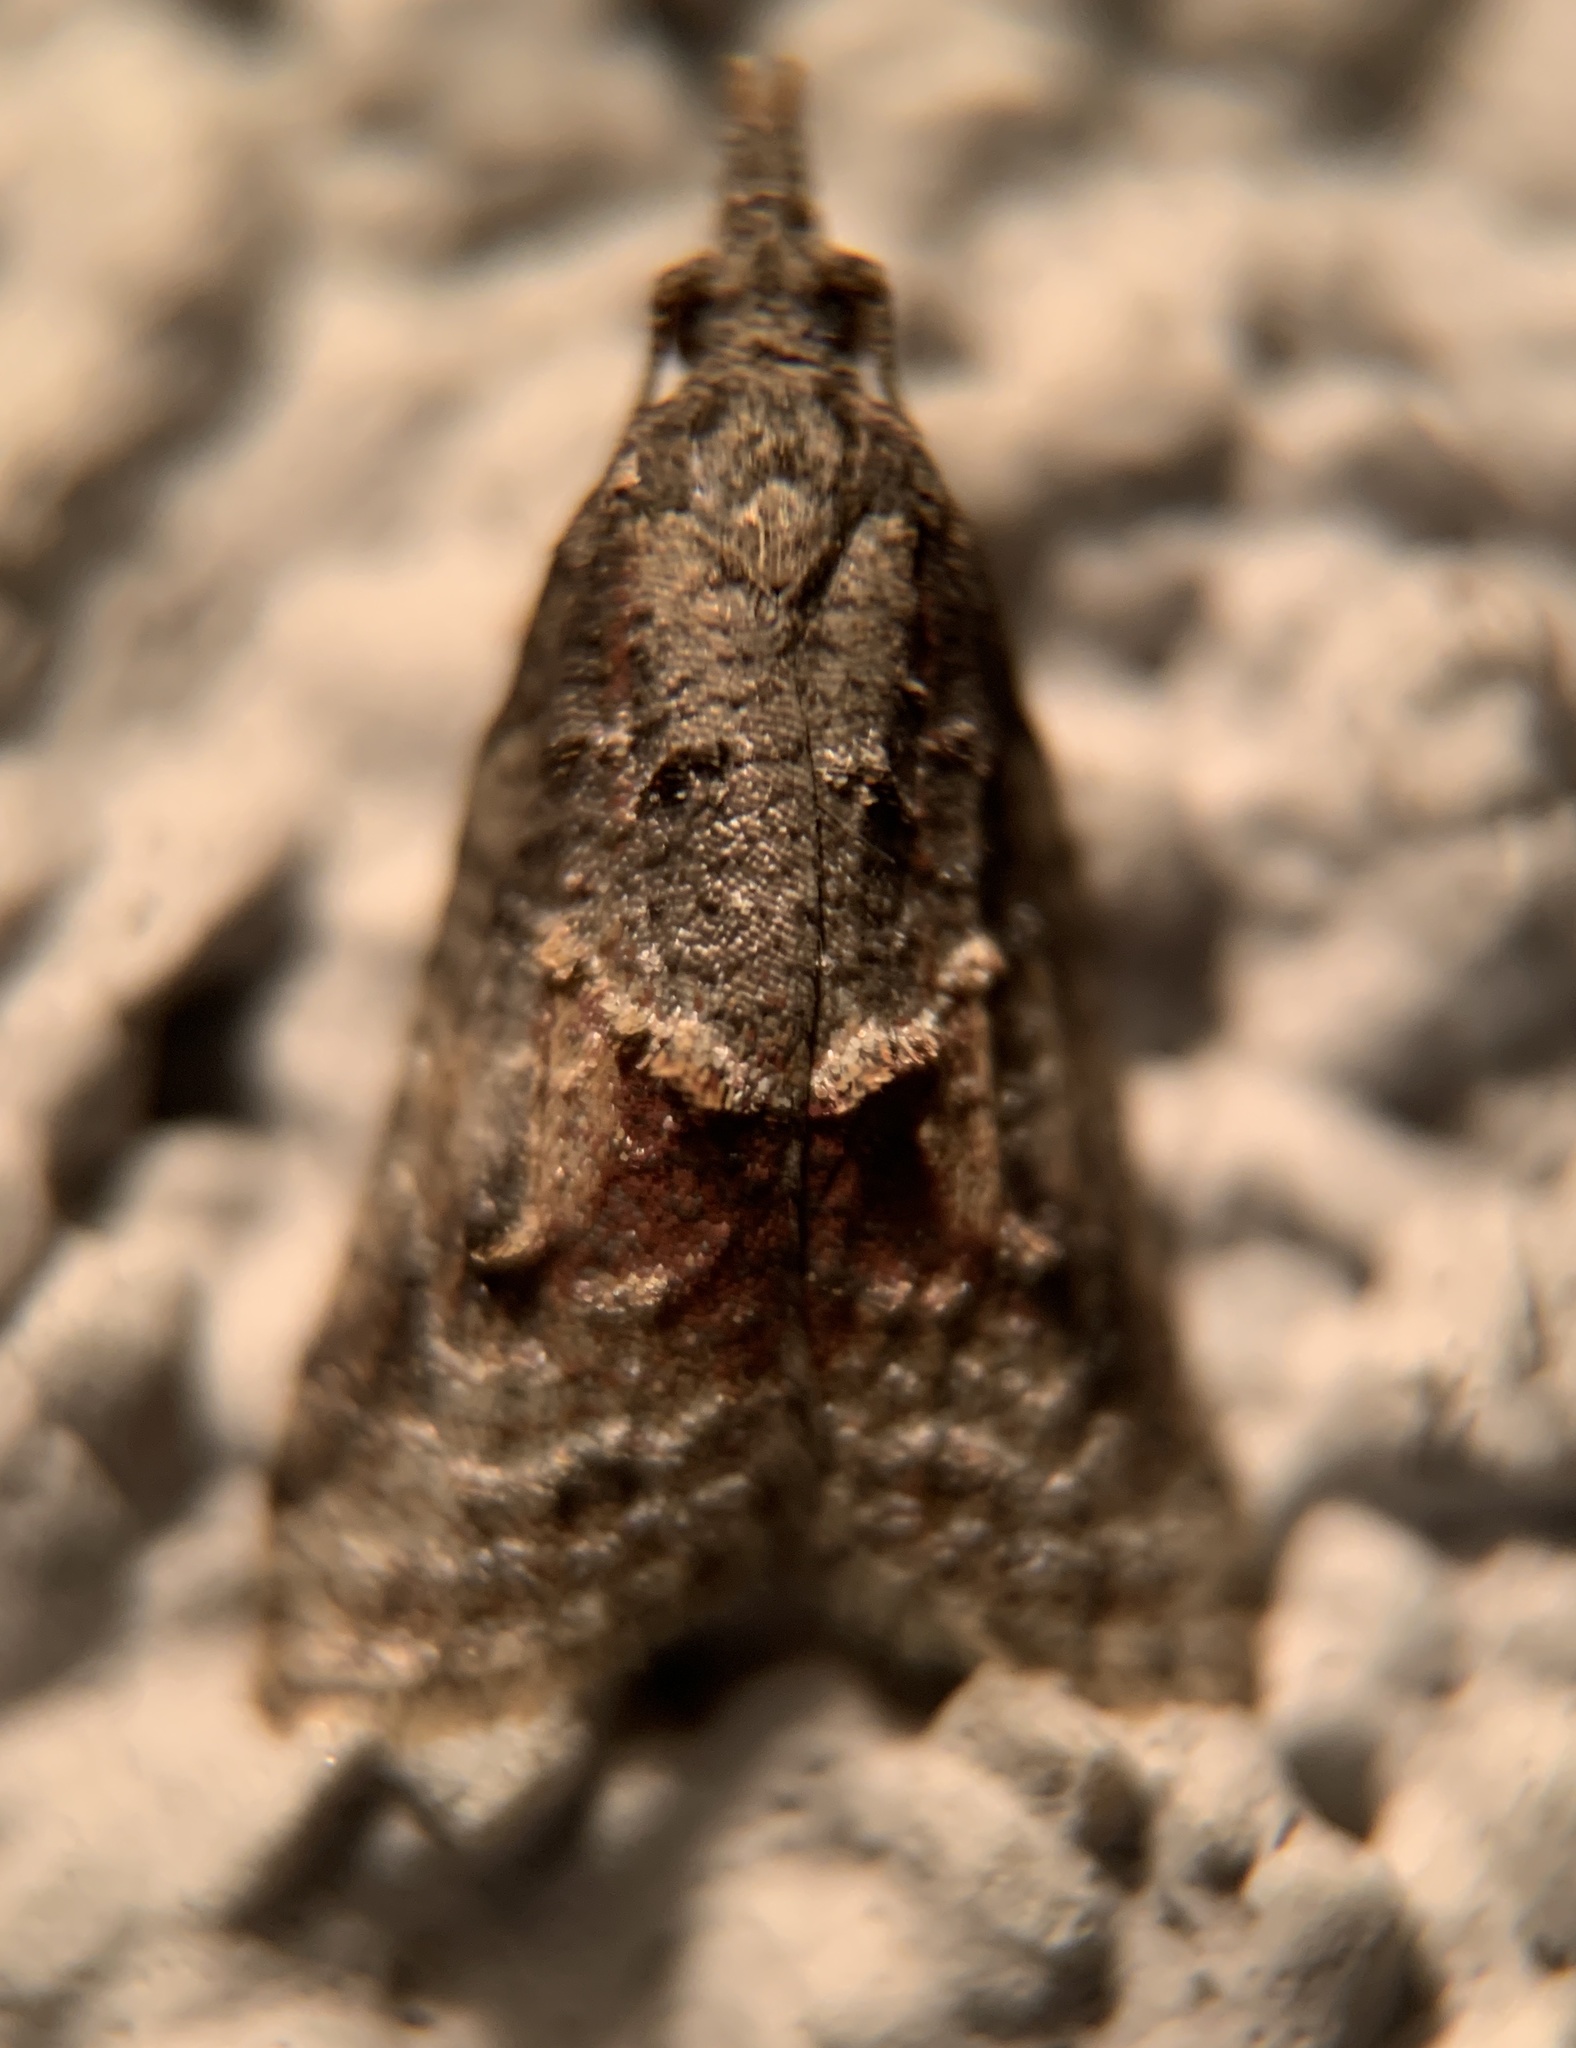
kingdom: Animalia
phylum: Arthropoda
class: Insecta
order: Lepidoptera
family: Tortricidae
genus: Platynota
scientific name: Platynota idaeusalis
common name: Tufted apple bud moth
